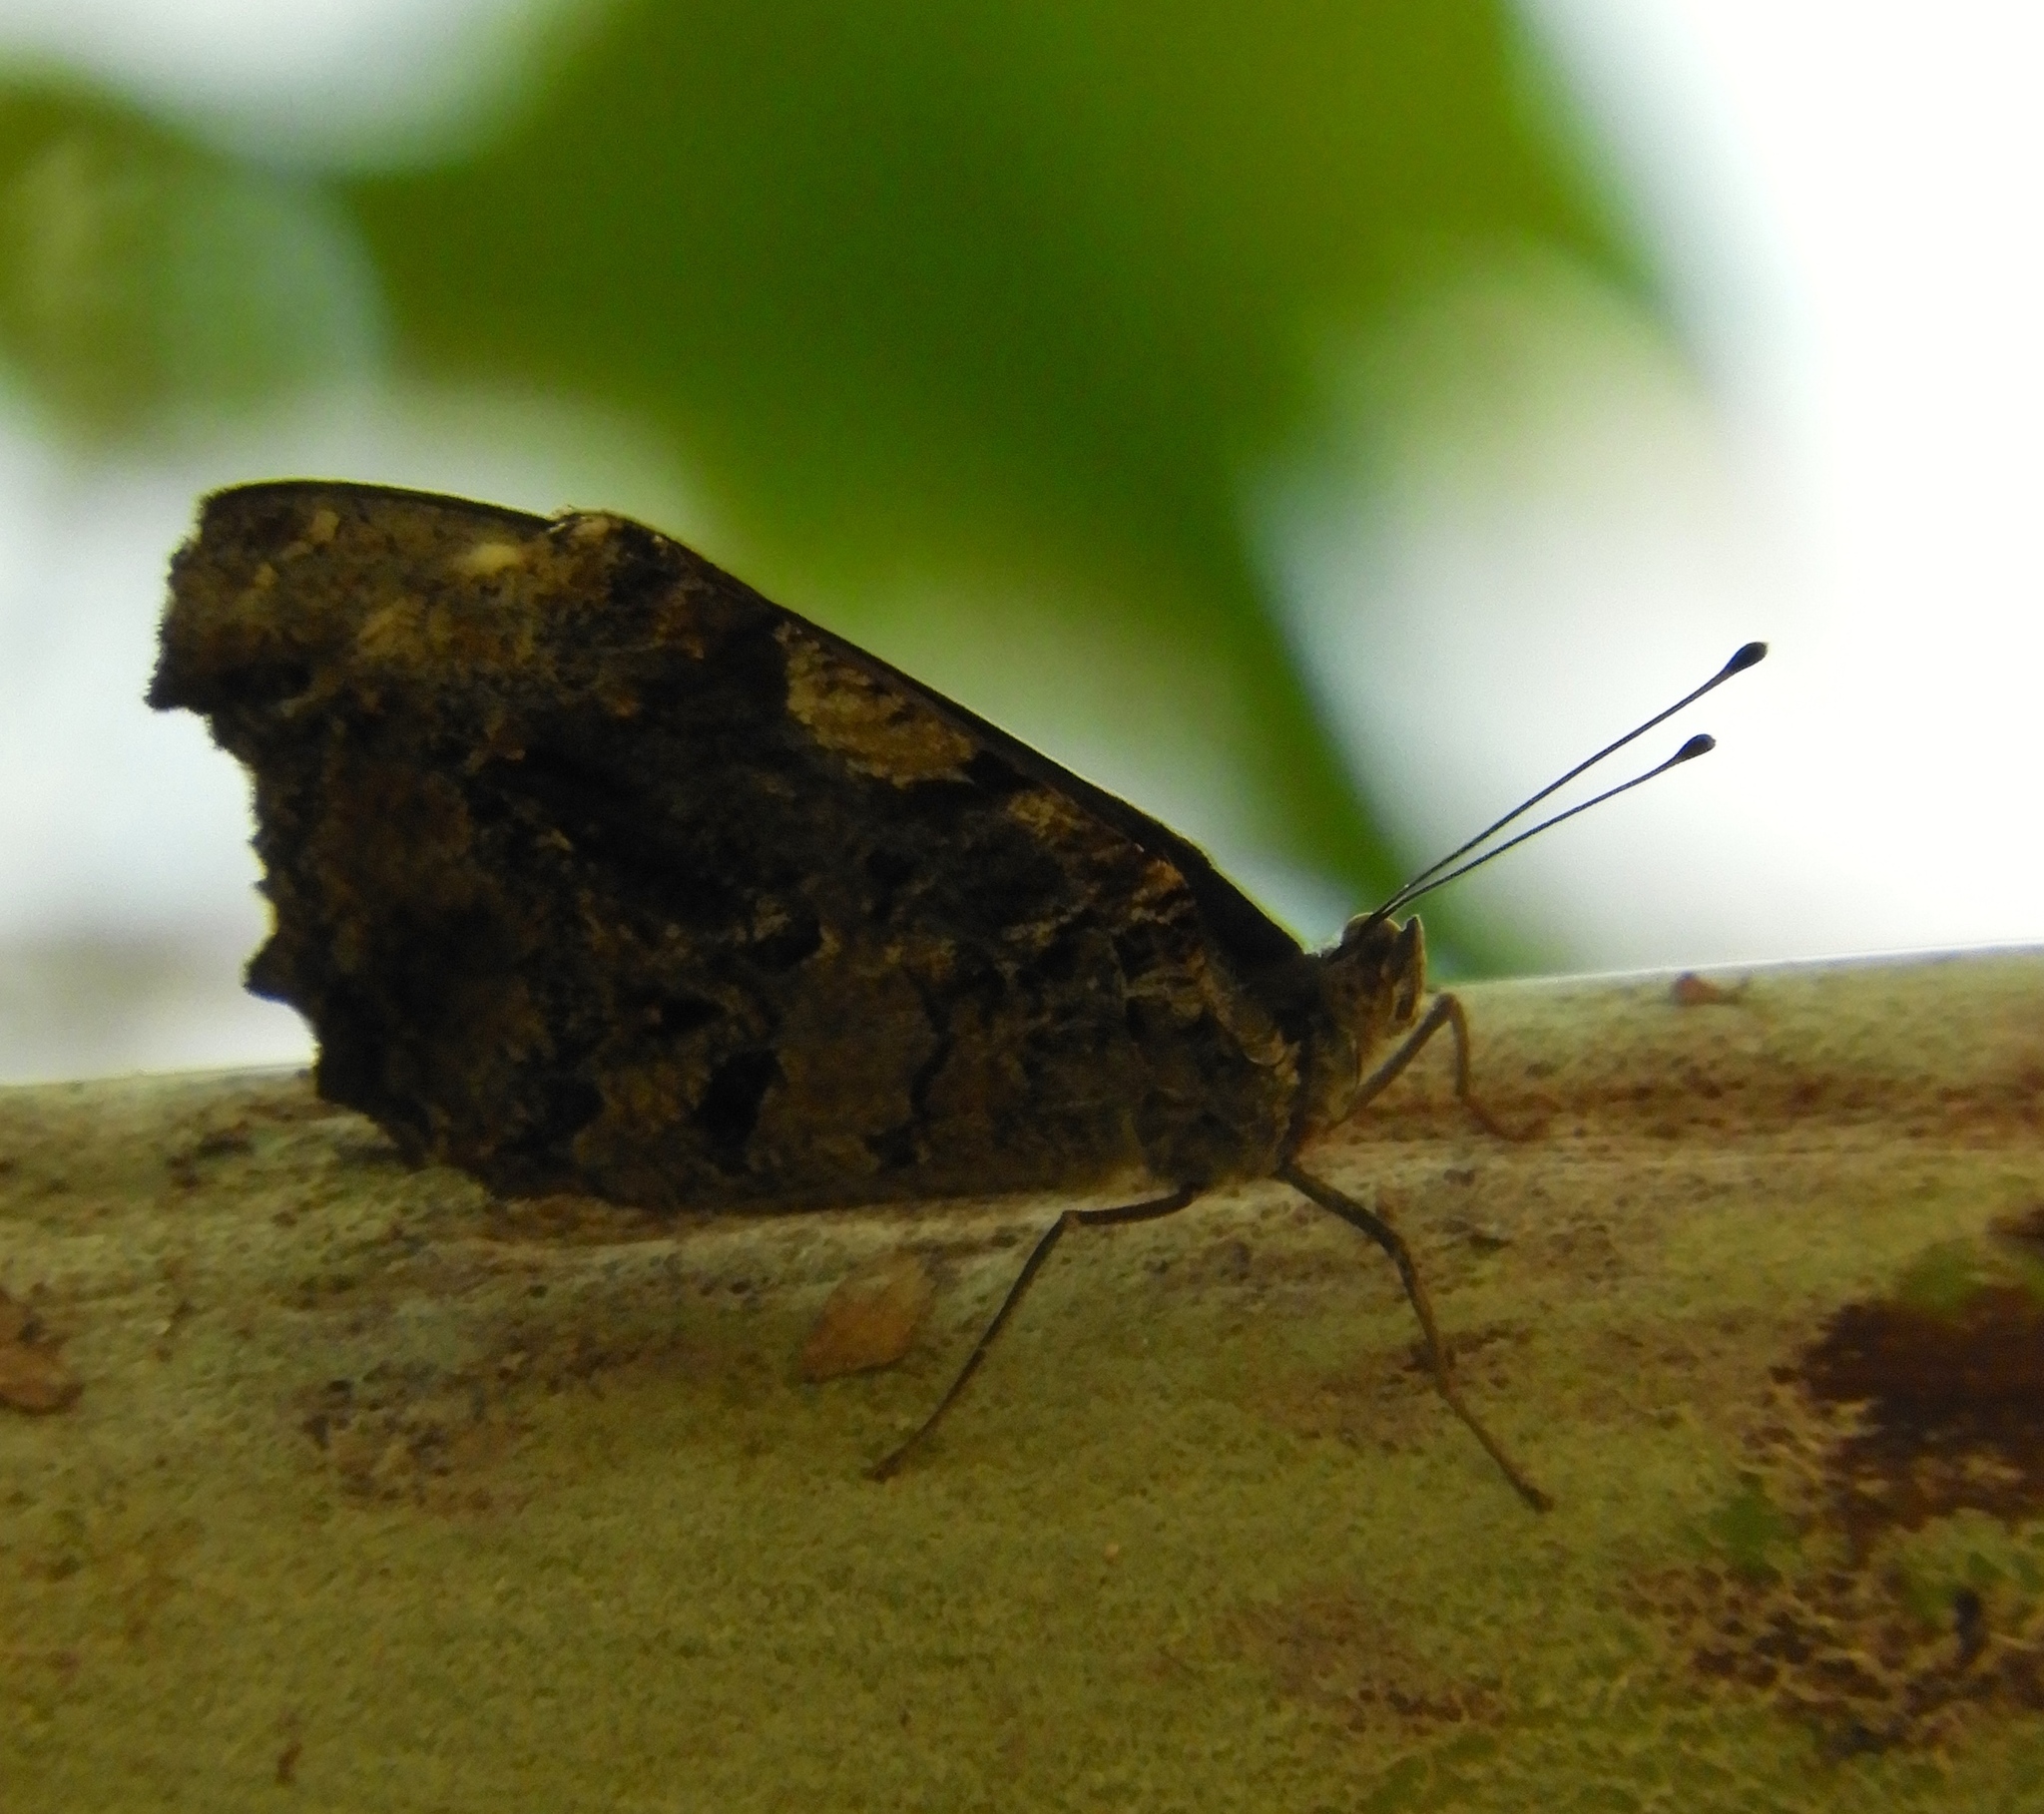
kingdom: Animalia
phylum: Arthropoda
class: Insecta
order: Lepidoptera
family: Nymphalidae
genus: Myscelia
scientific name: Myscelia
